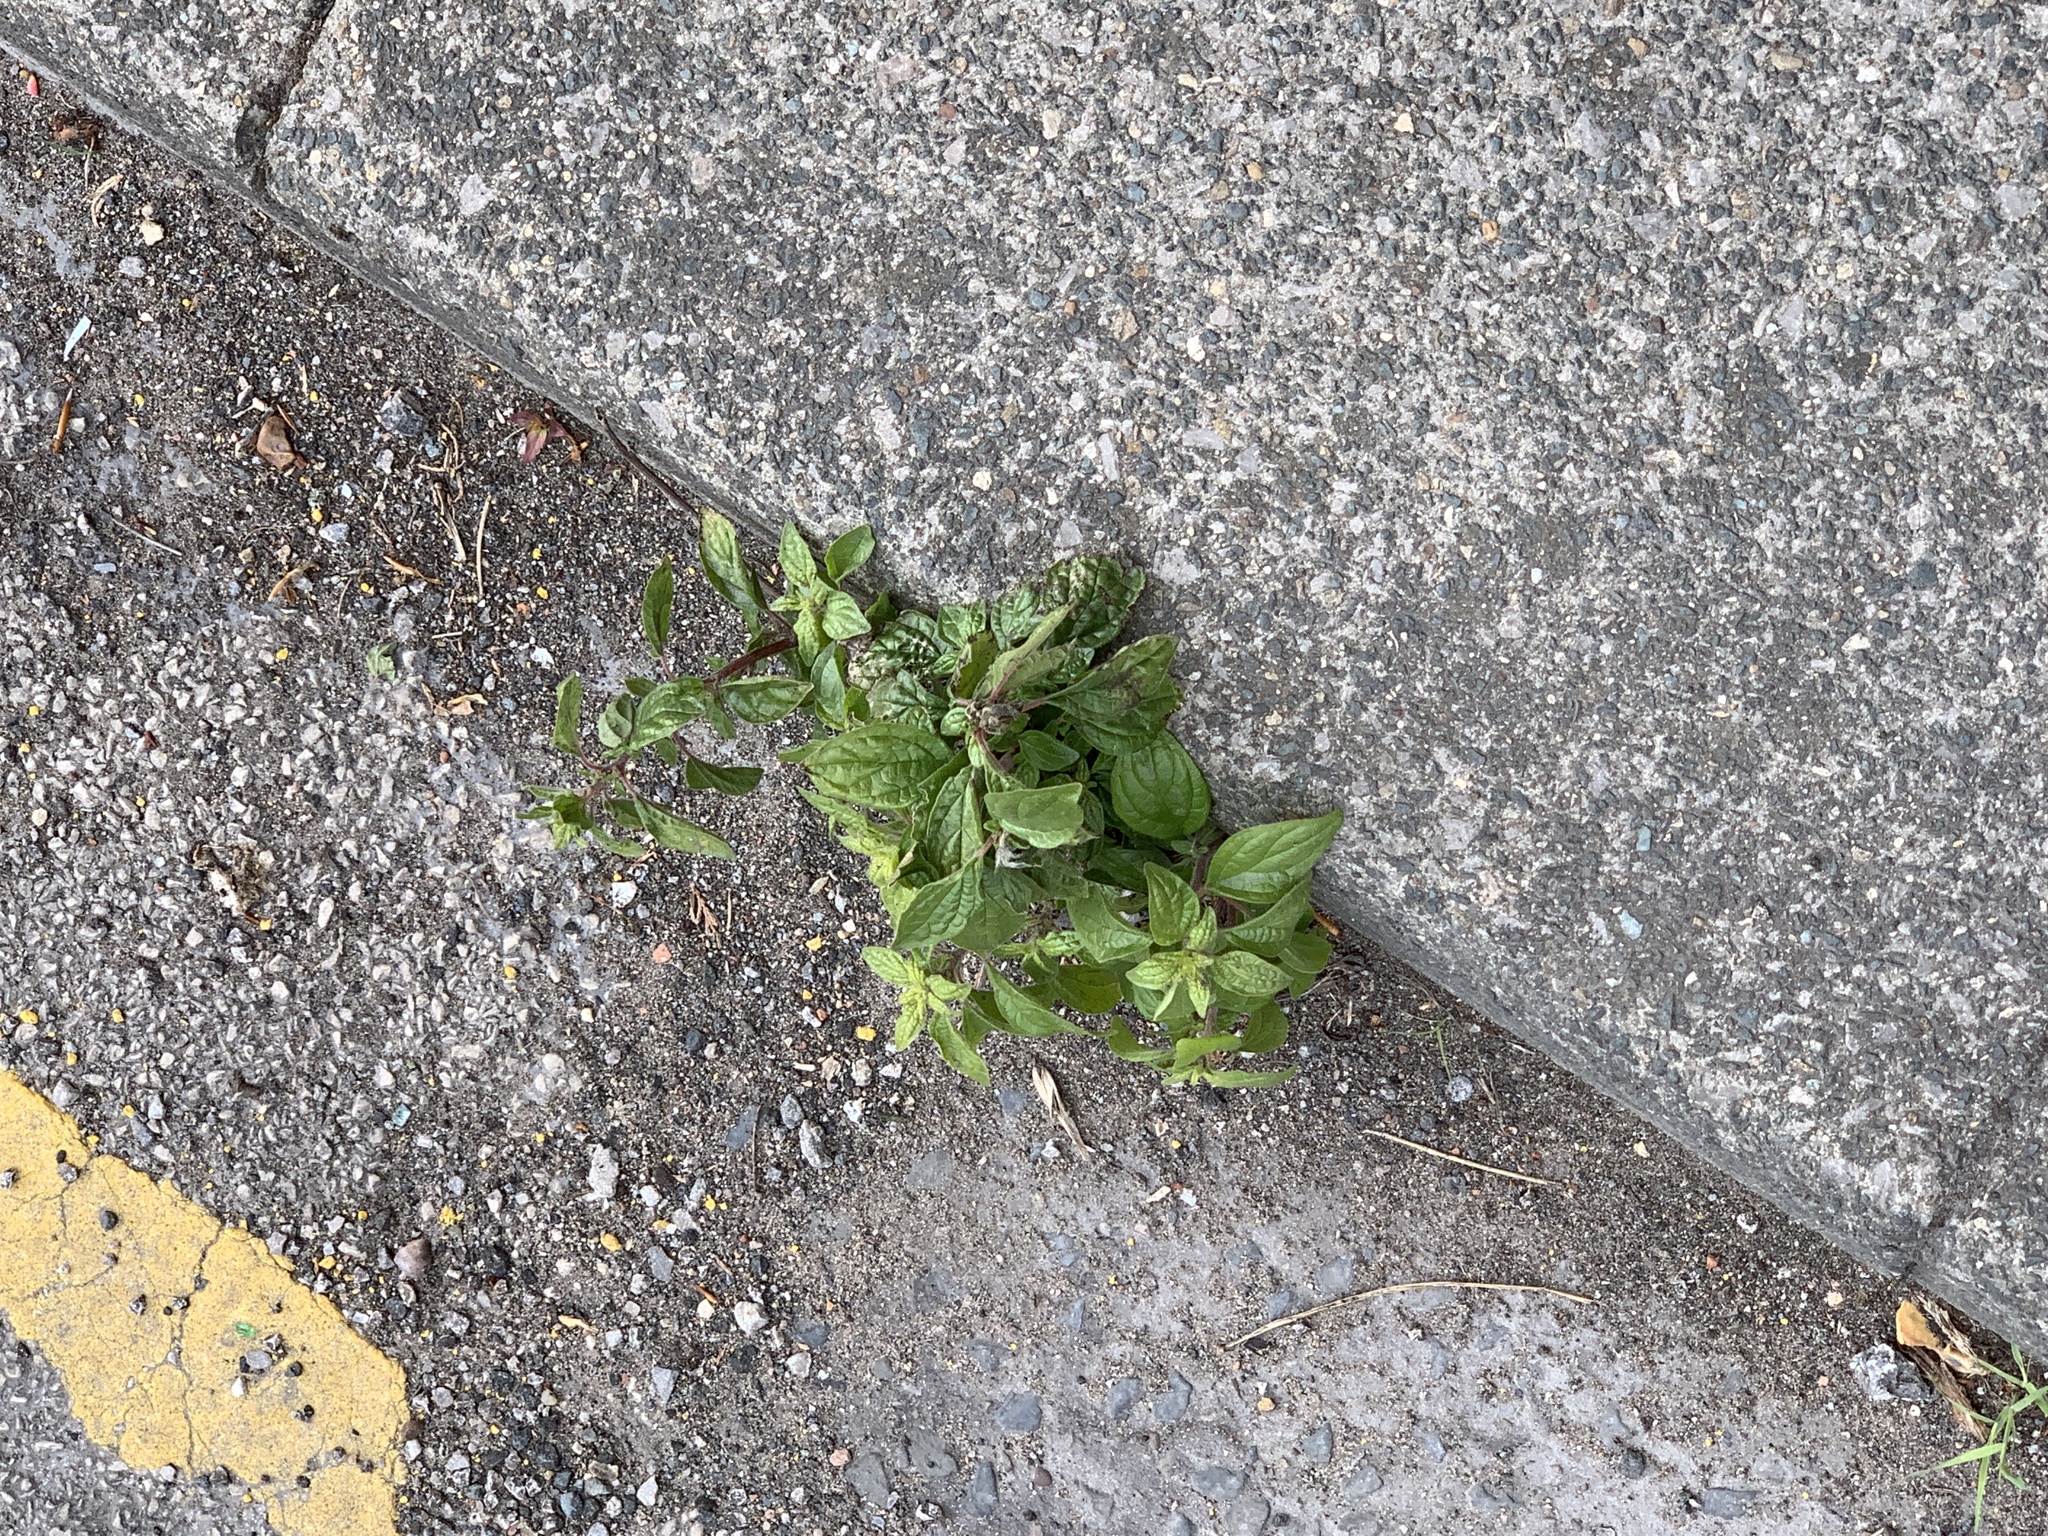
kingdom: Plantae
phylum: Tracheophyta
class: Magnoliopsida
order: Rosales
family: Urticaceae
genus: Parietaria
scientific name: Parietaria judaica
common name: Pellitory-of-the-wall
